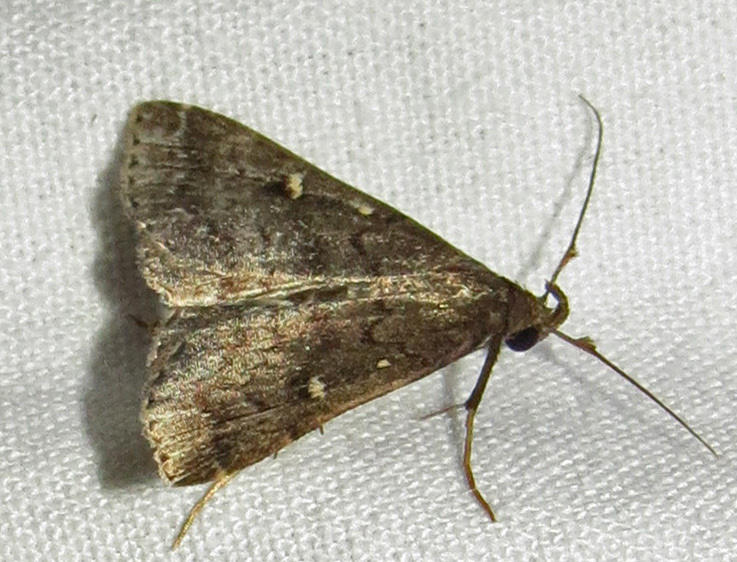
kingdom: Animalia
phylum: Arthropoda
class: Insecta
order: Lepidoptera
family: Erebidae
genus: Tetanolita
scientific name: Tetanolita mynesalis
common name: Smoky tetanolita moth
